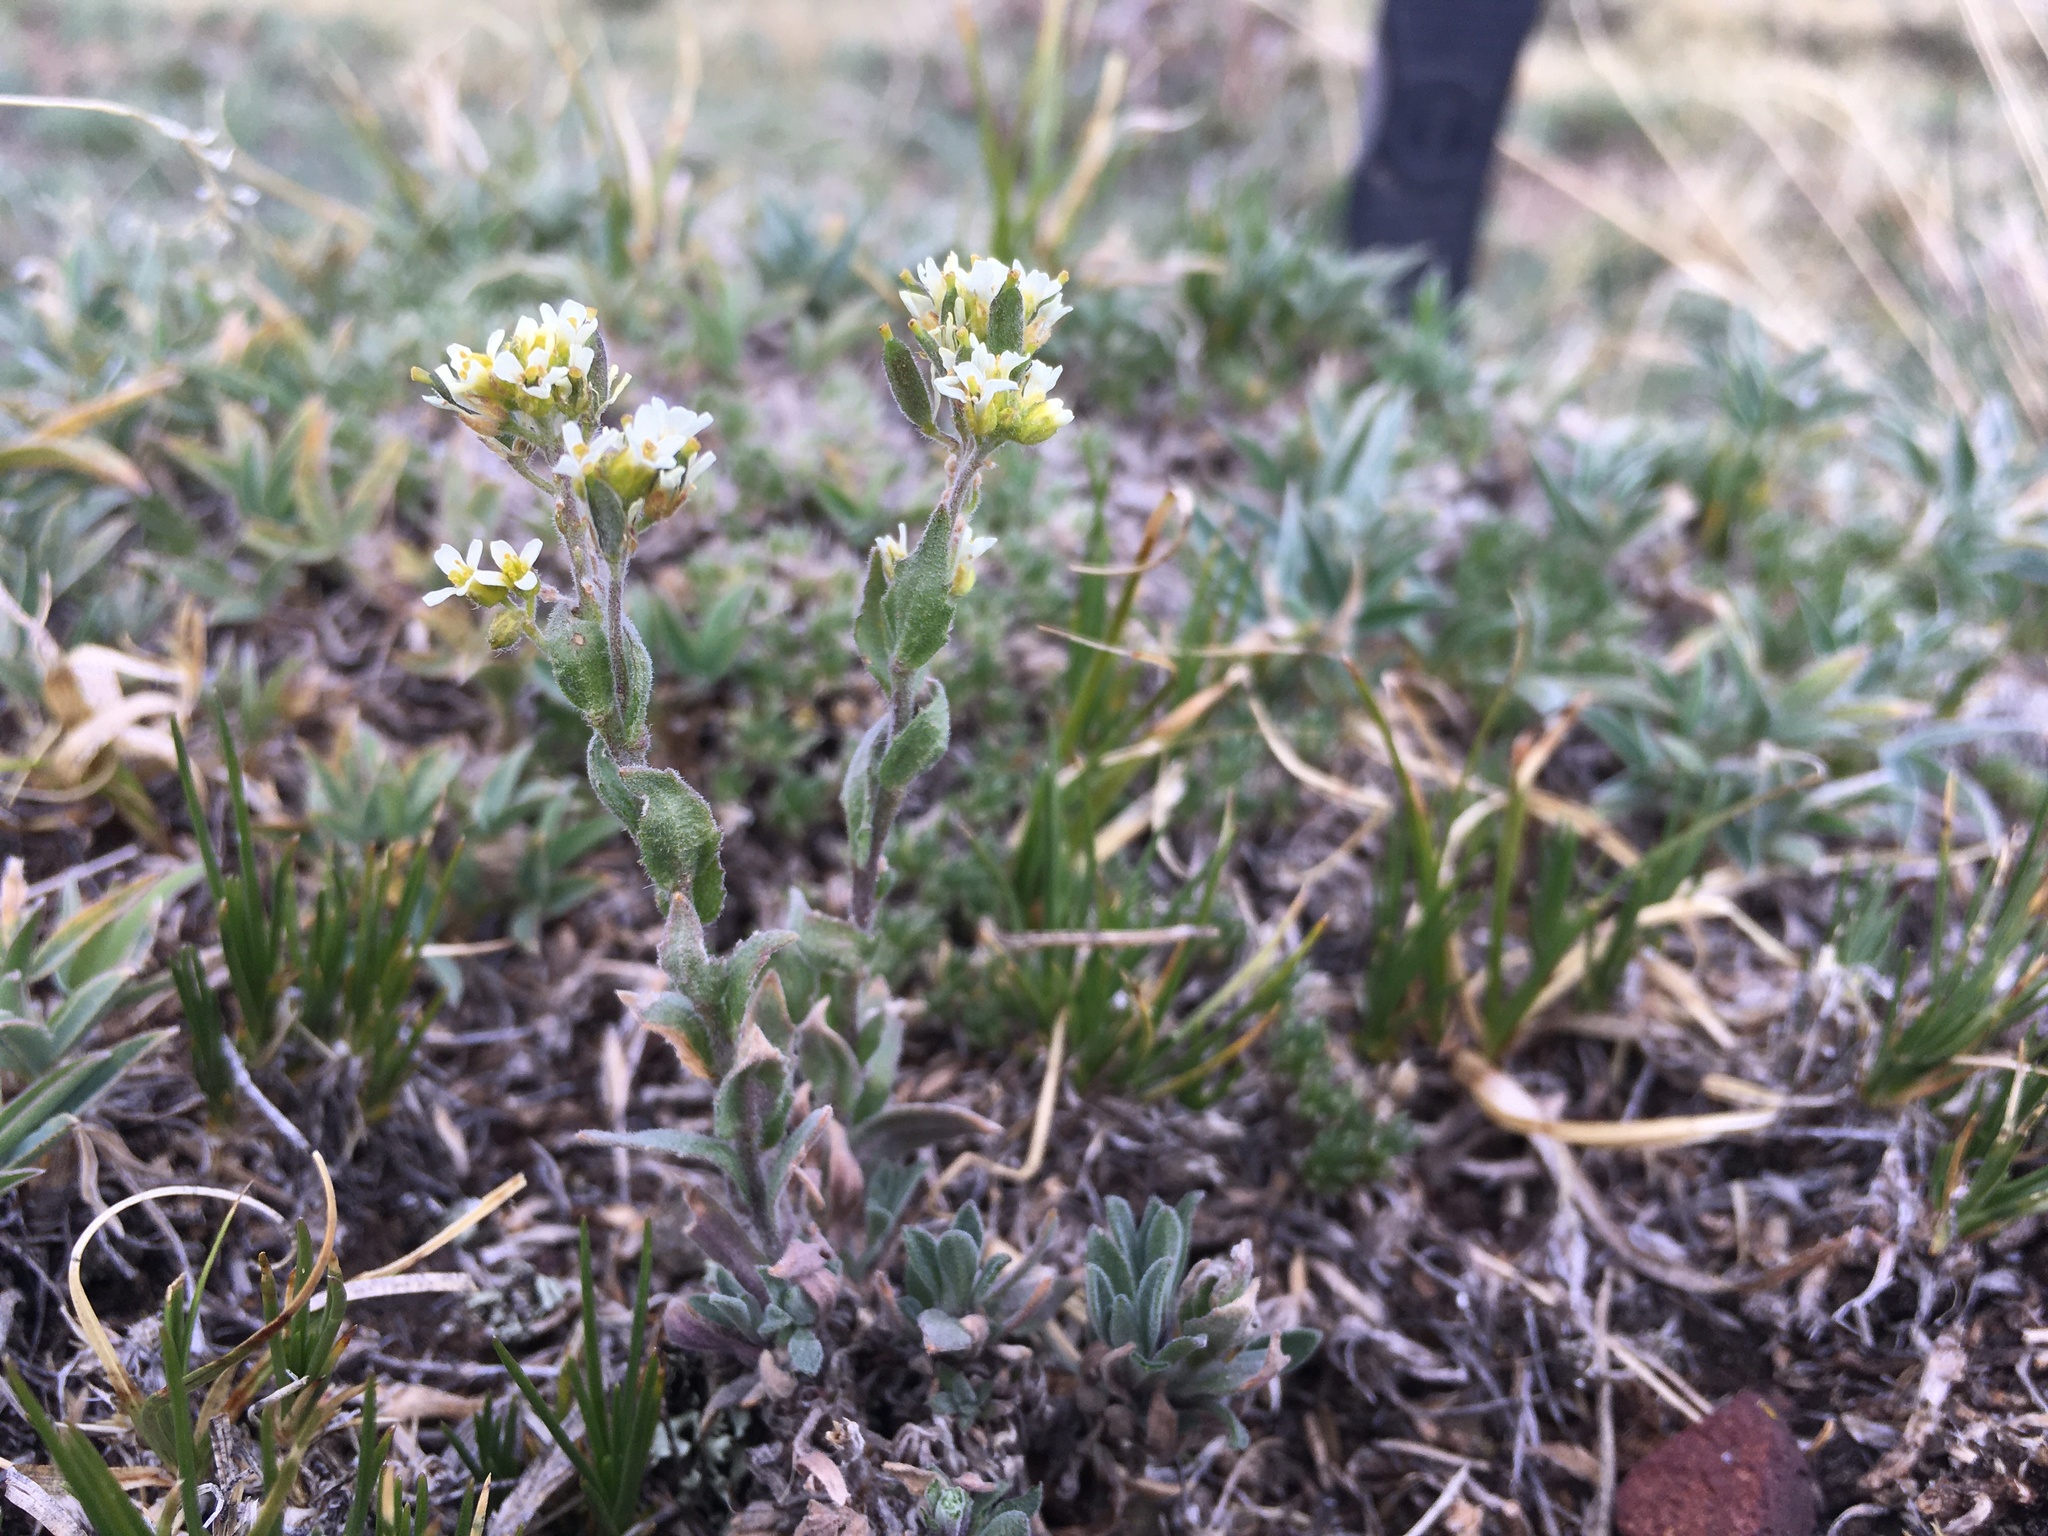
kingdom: Plantae
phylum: Tracheophyta
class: Magnoliopsida
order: Brassicales
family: Brassicaceae
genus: Draba
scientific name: Draba cana
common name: Hoary draba
